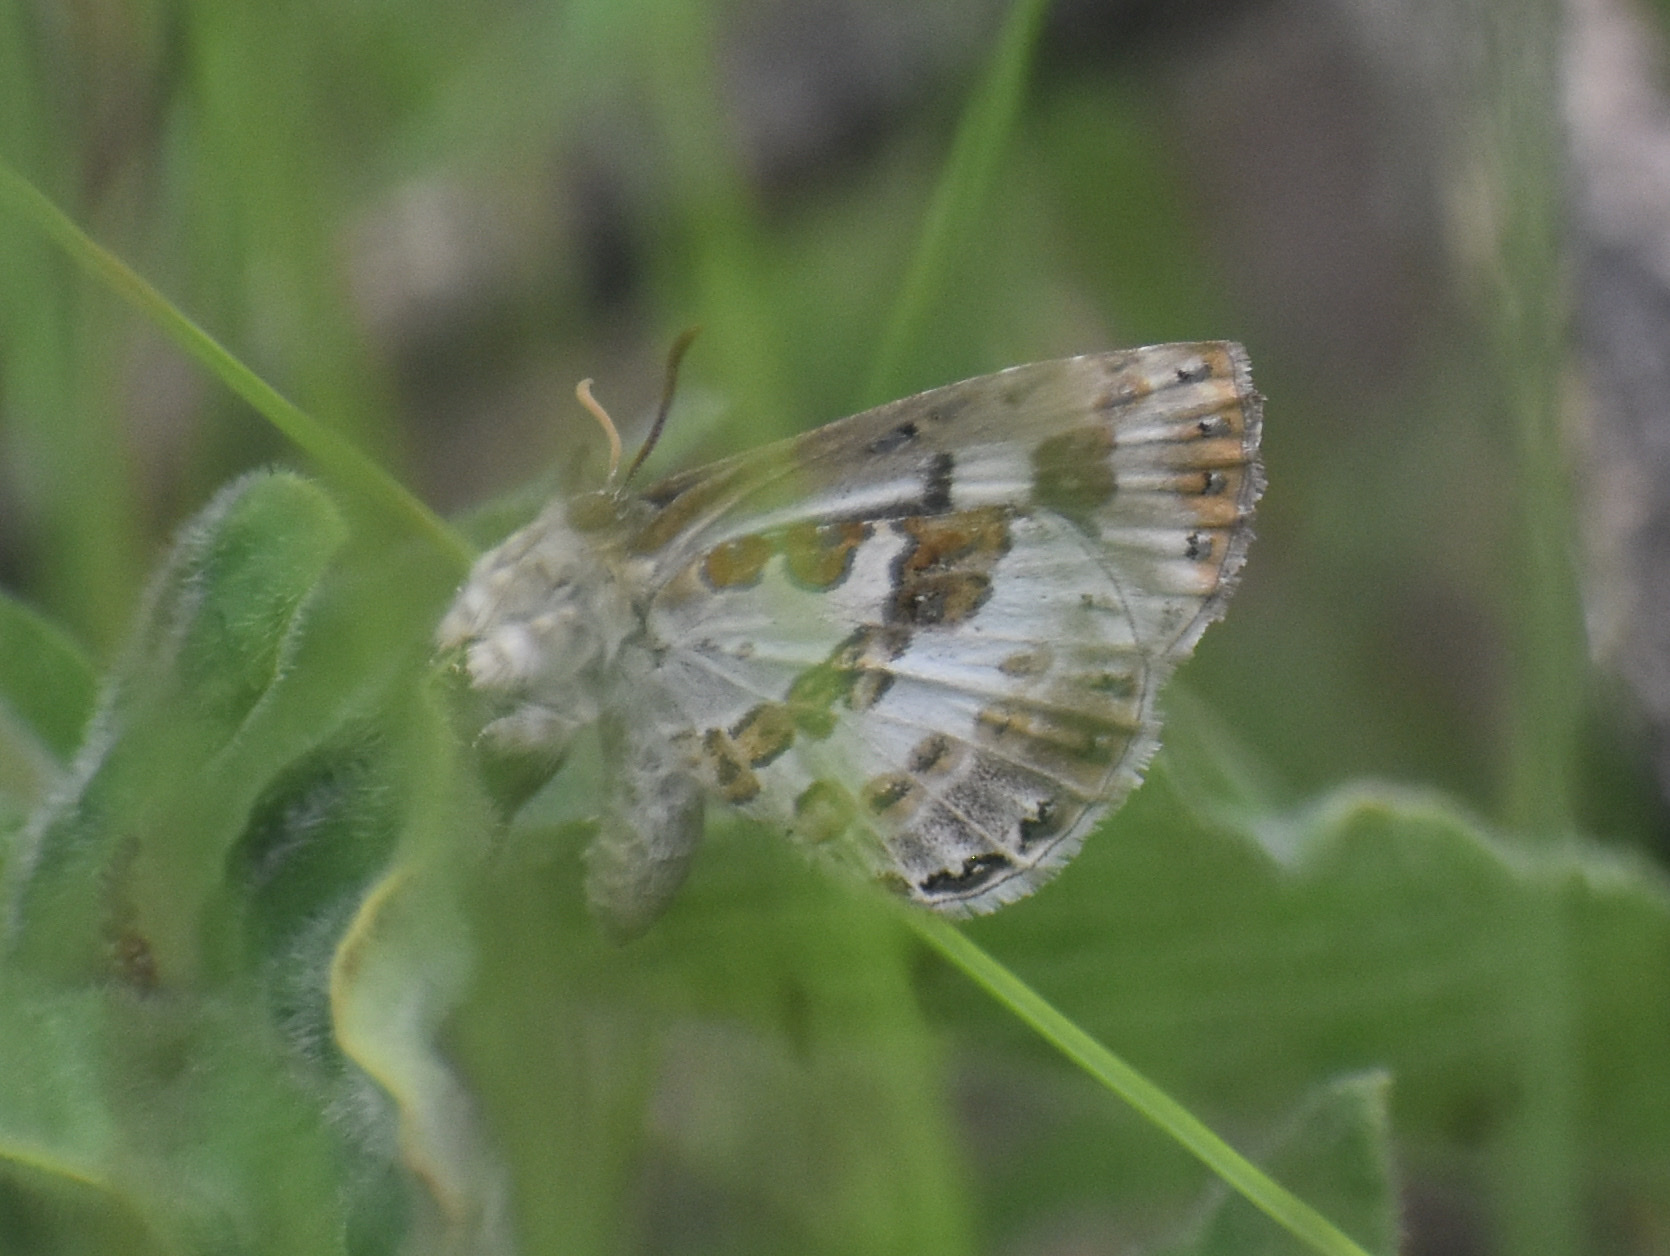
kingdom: Animalia
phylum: Arthropoda
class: Insecta
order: Lepidoptera
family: Lycaenidae
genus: Lachnocnema
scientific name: Lachnocnema bibulus
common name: Common woolly legs
